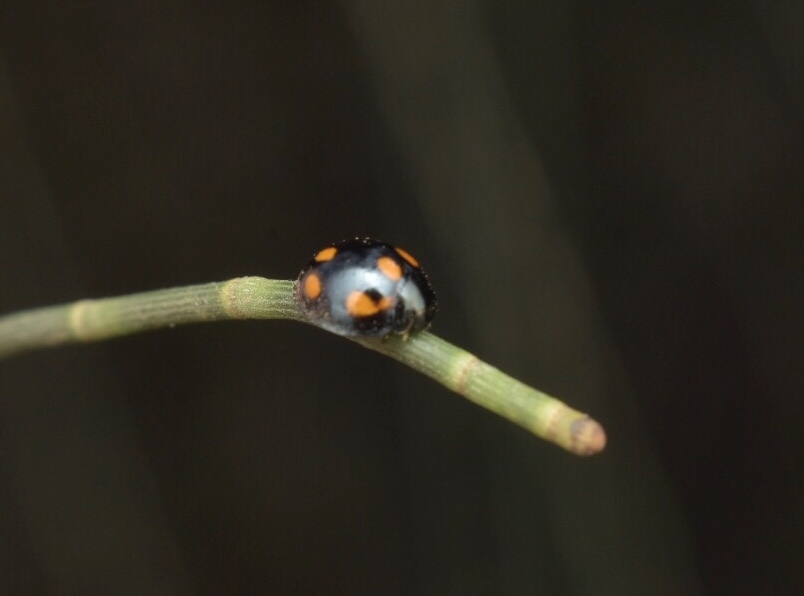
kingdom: Animalia
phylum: Arthropoda
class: Insecta
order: Coleoptera
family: Coccinellidae
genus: Orcus
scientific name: Orcus
